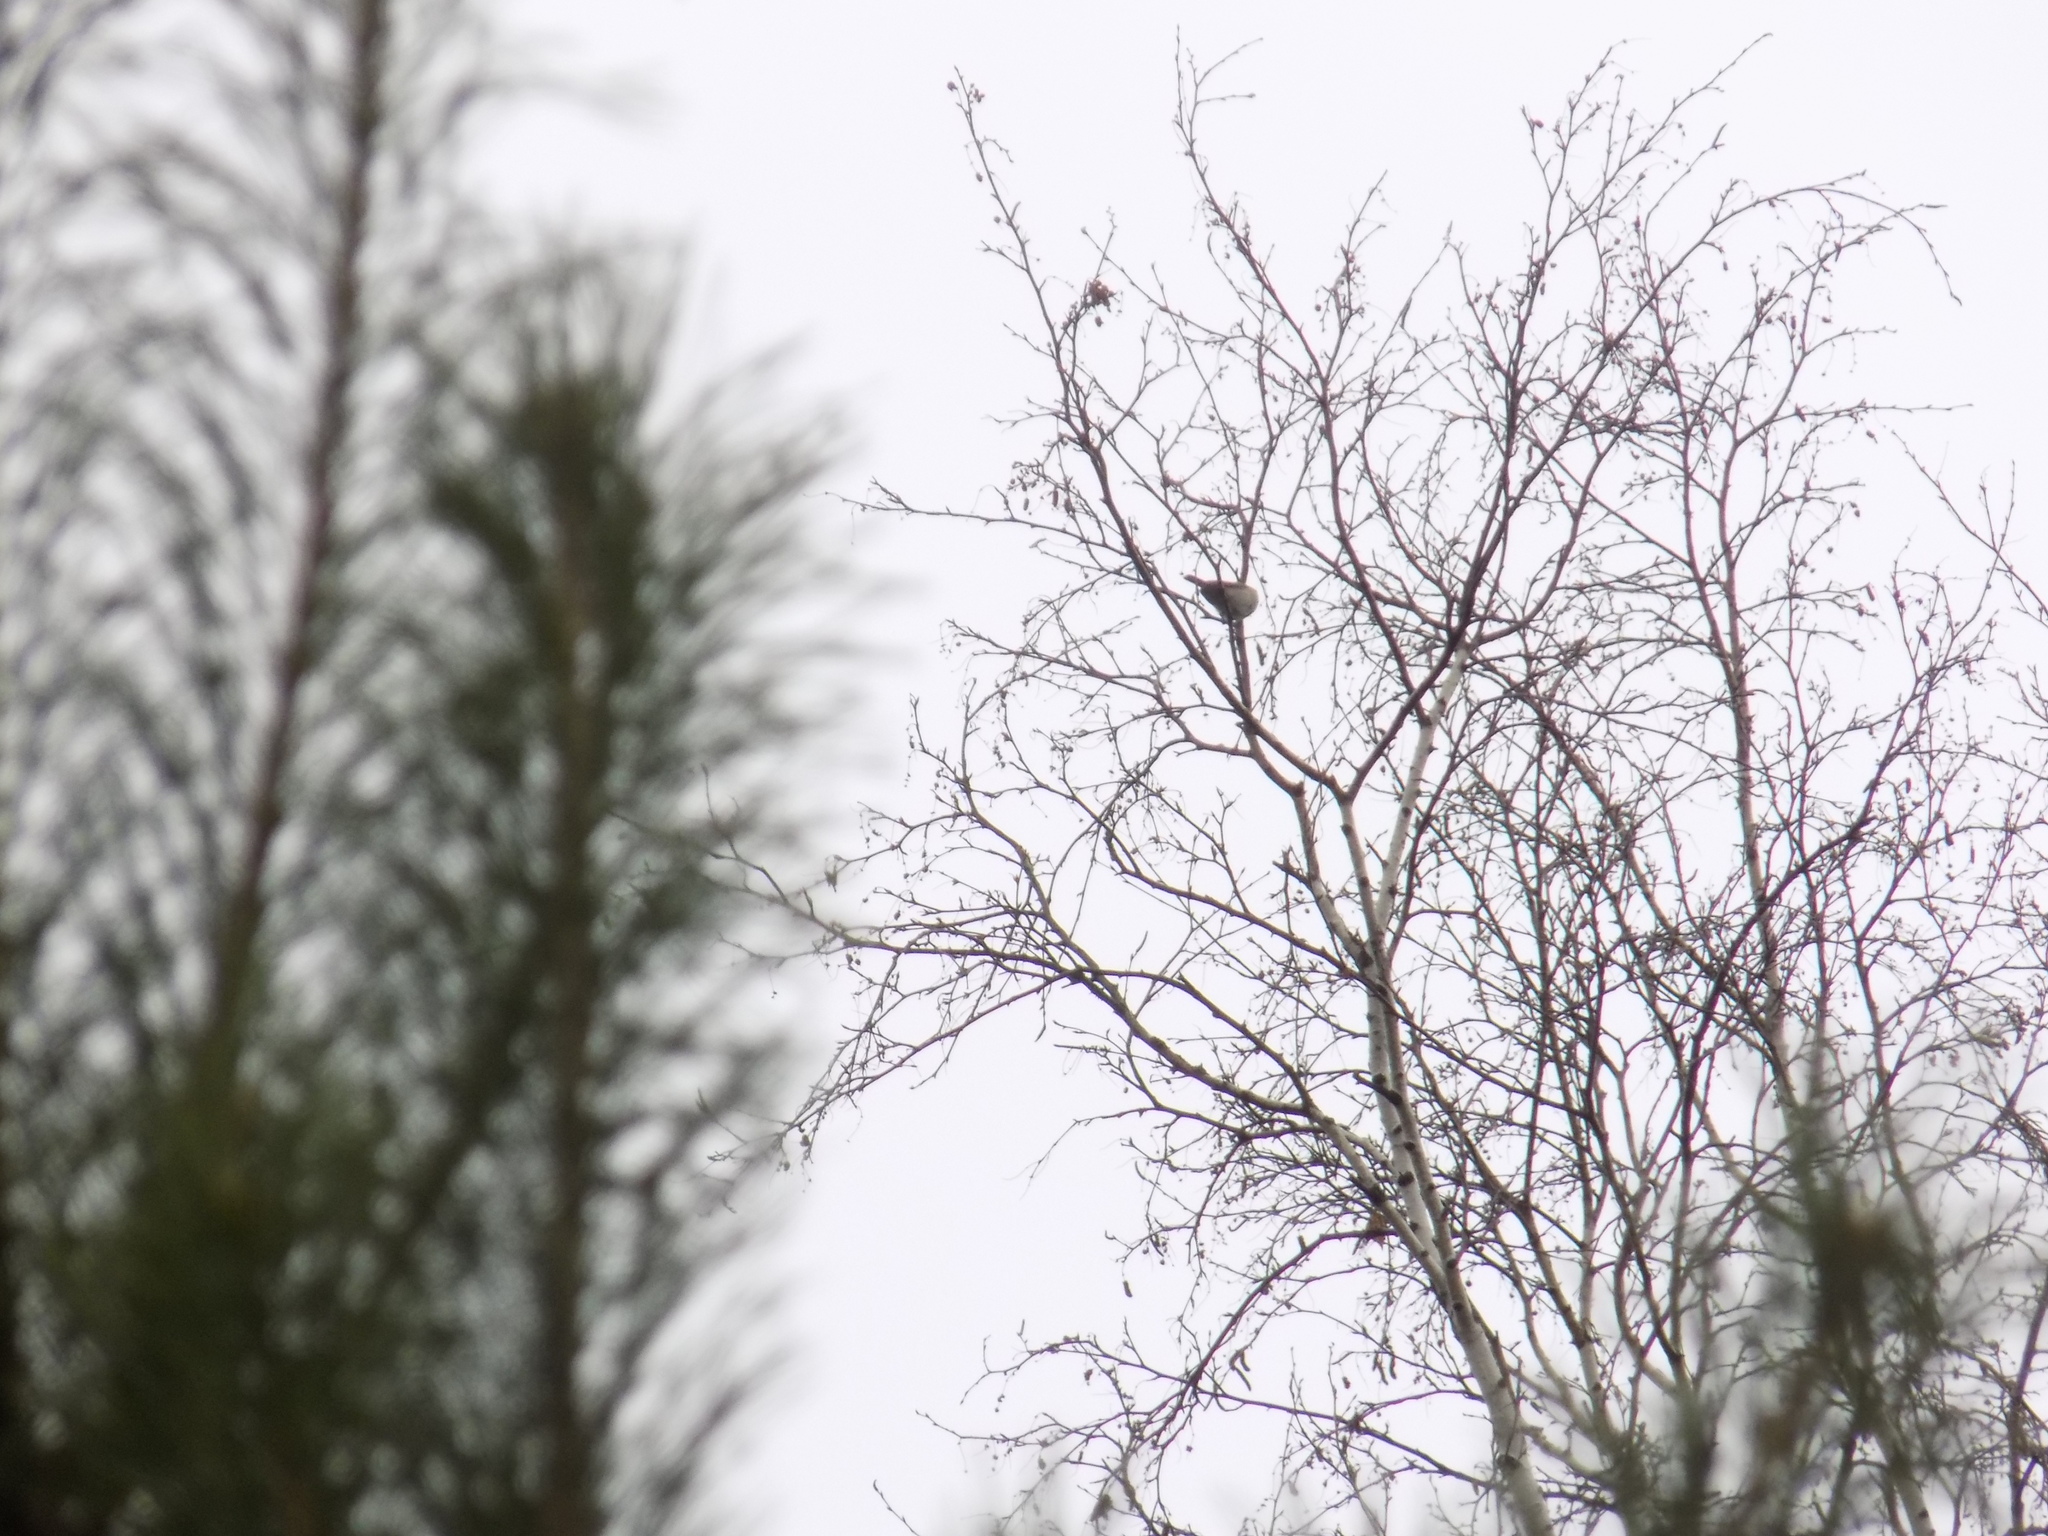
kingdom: Animalia
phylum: Chordata
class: Aves
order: Passeriformes
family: Phylloscopidae
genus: Phylloscopus
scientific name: Phylloscopus
